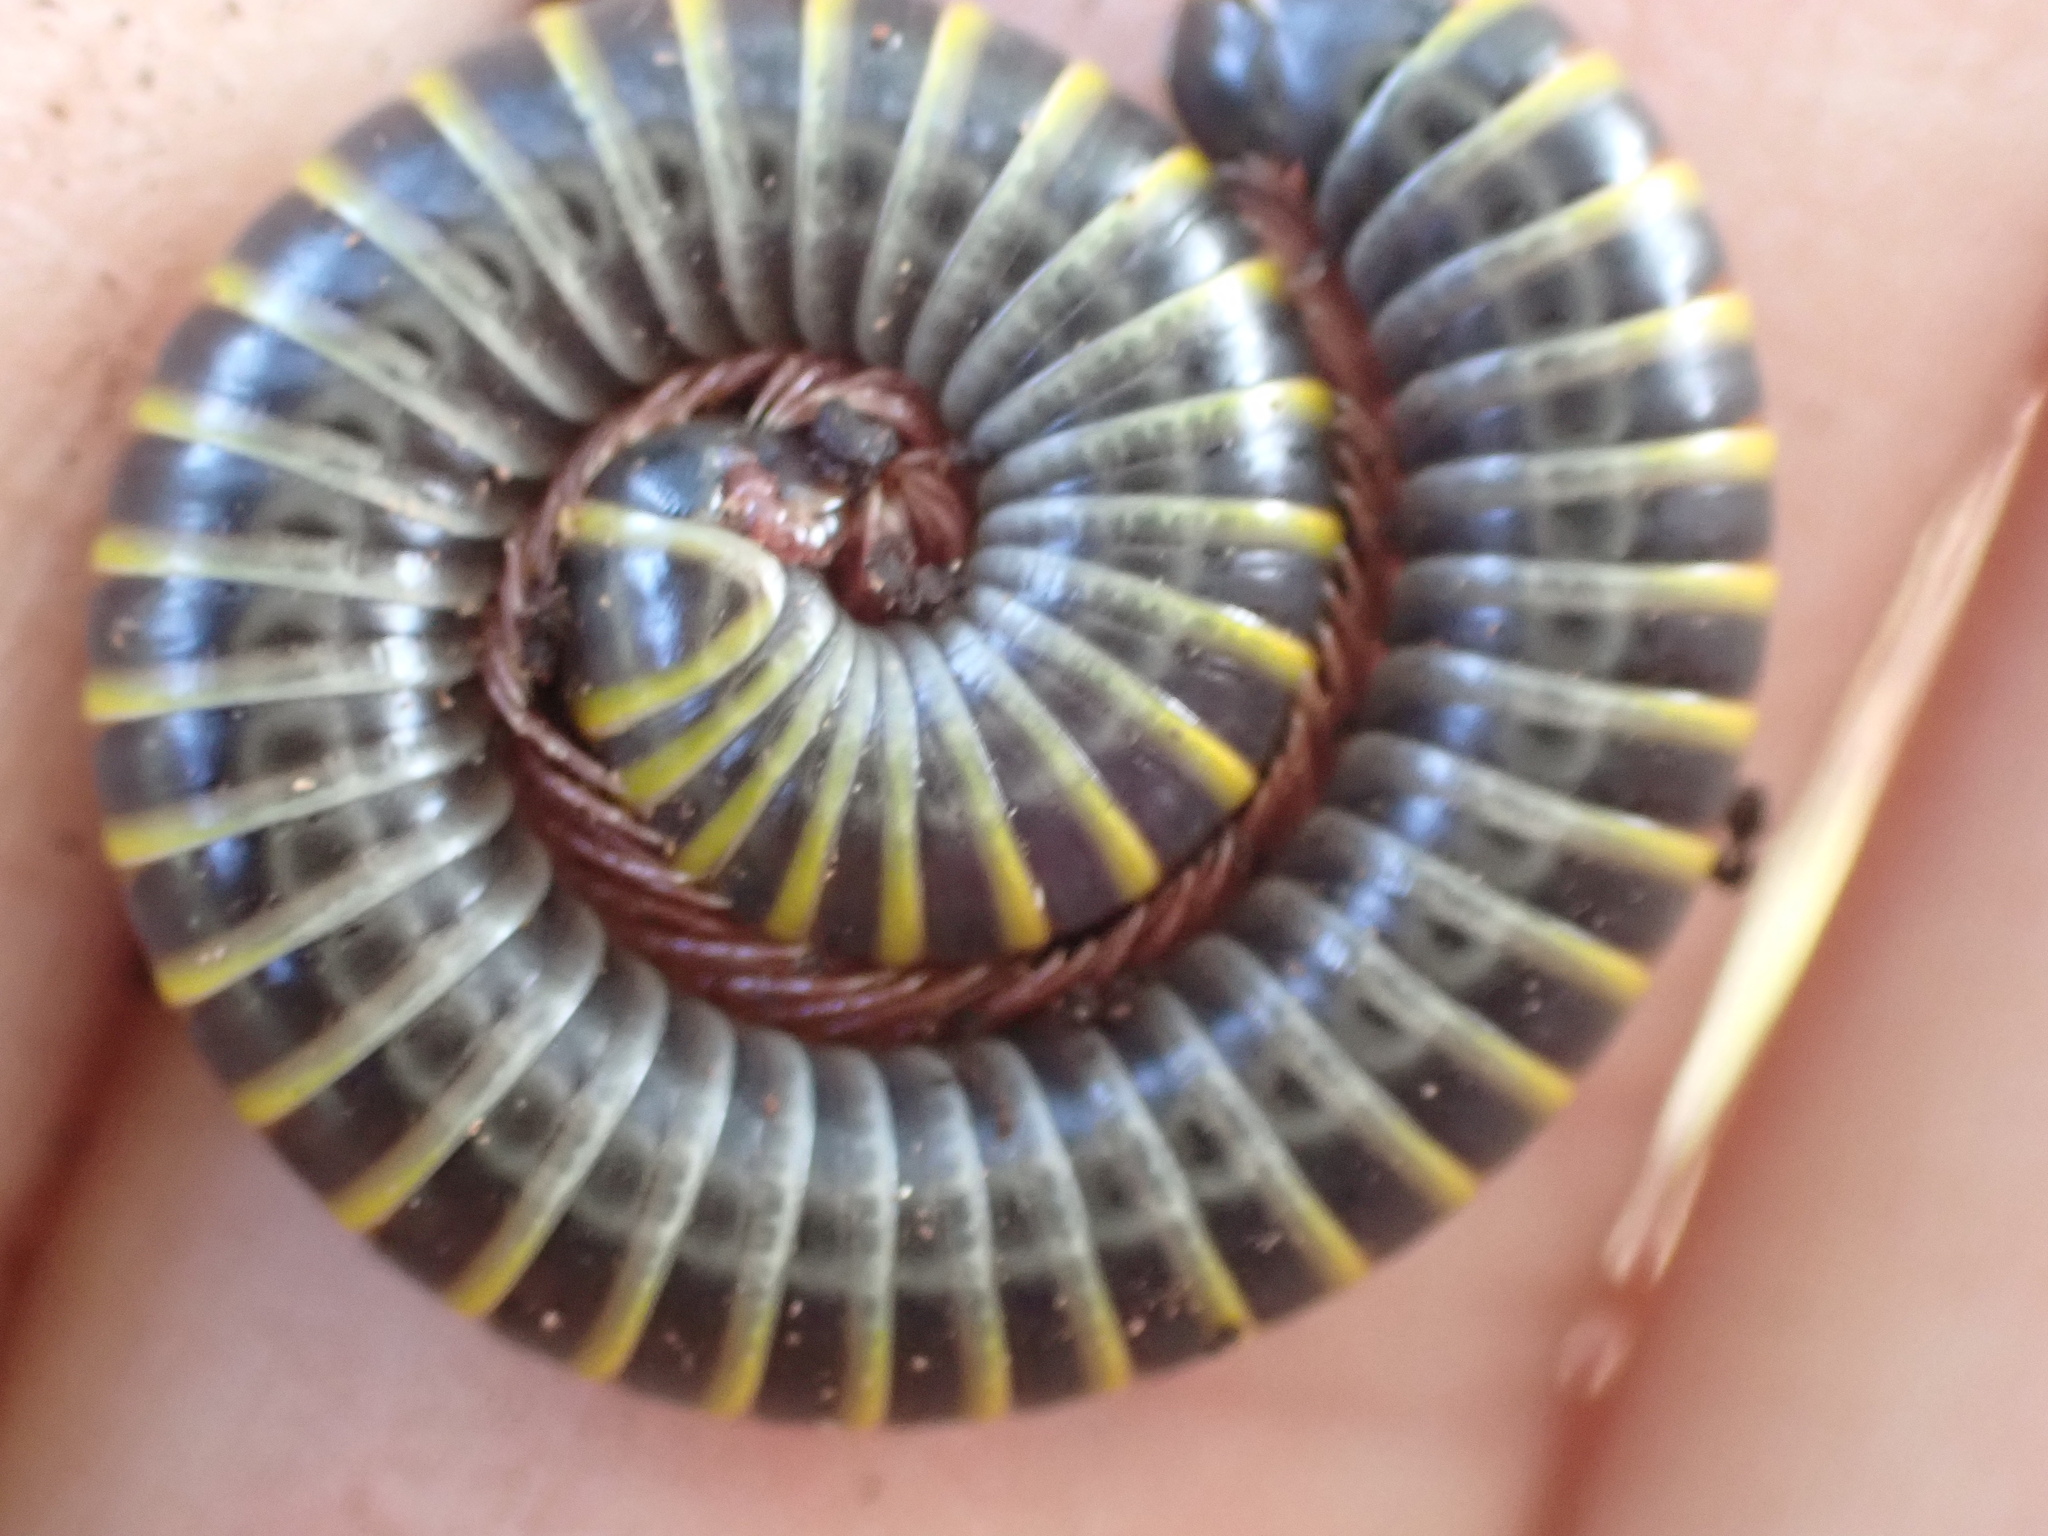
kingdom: Animalia
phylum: Arthropoda
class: Diplopoda
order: Spirobolida
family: Rhinocricidae
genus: Anadenobolus
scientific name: Anadenobolus monilicornis
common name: Caribbean millipede
